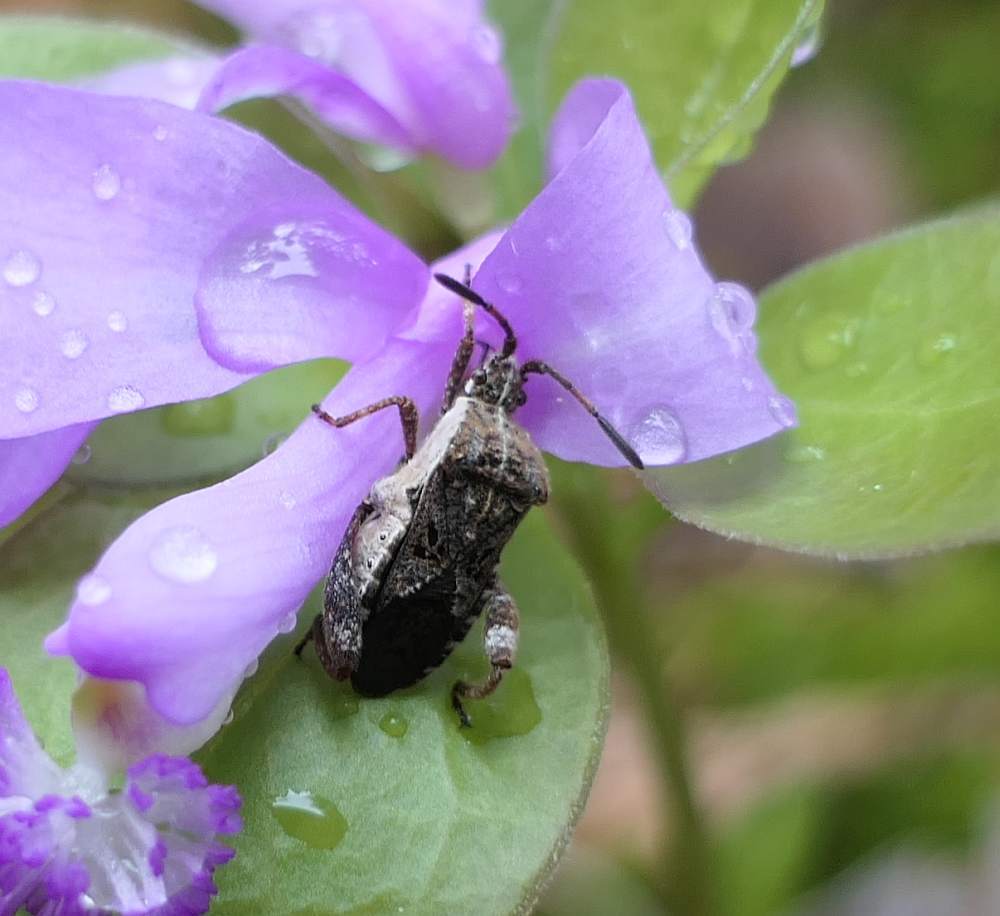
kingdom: Animalia
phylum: Arthropoda
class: Insecta
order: Hemiptera
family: Coreidae
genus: Merocoris
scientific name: Merocoris distinctus
